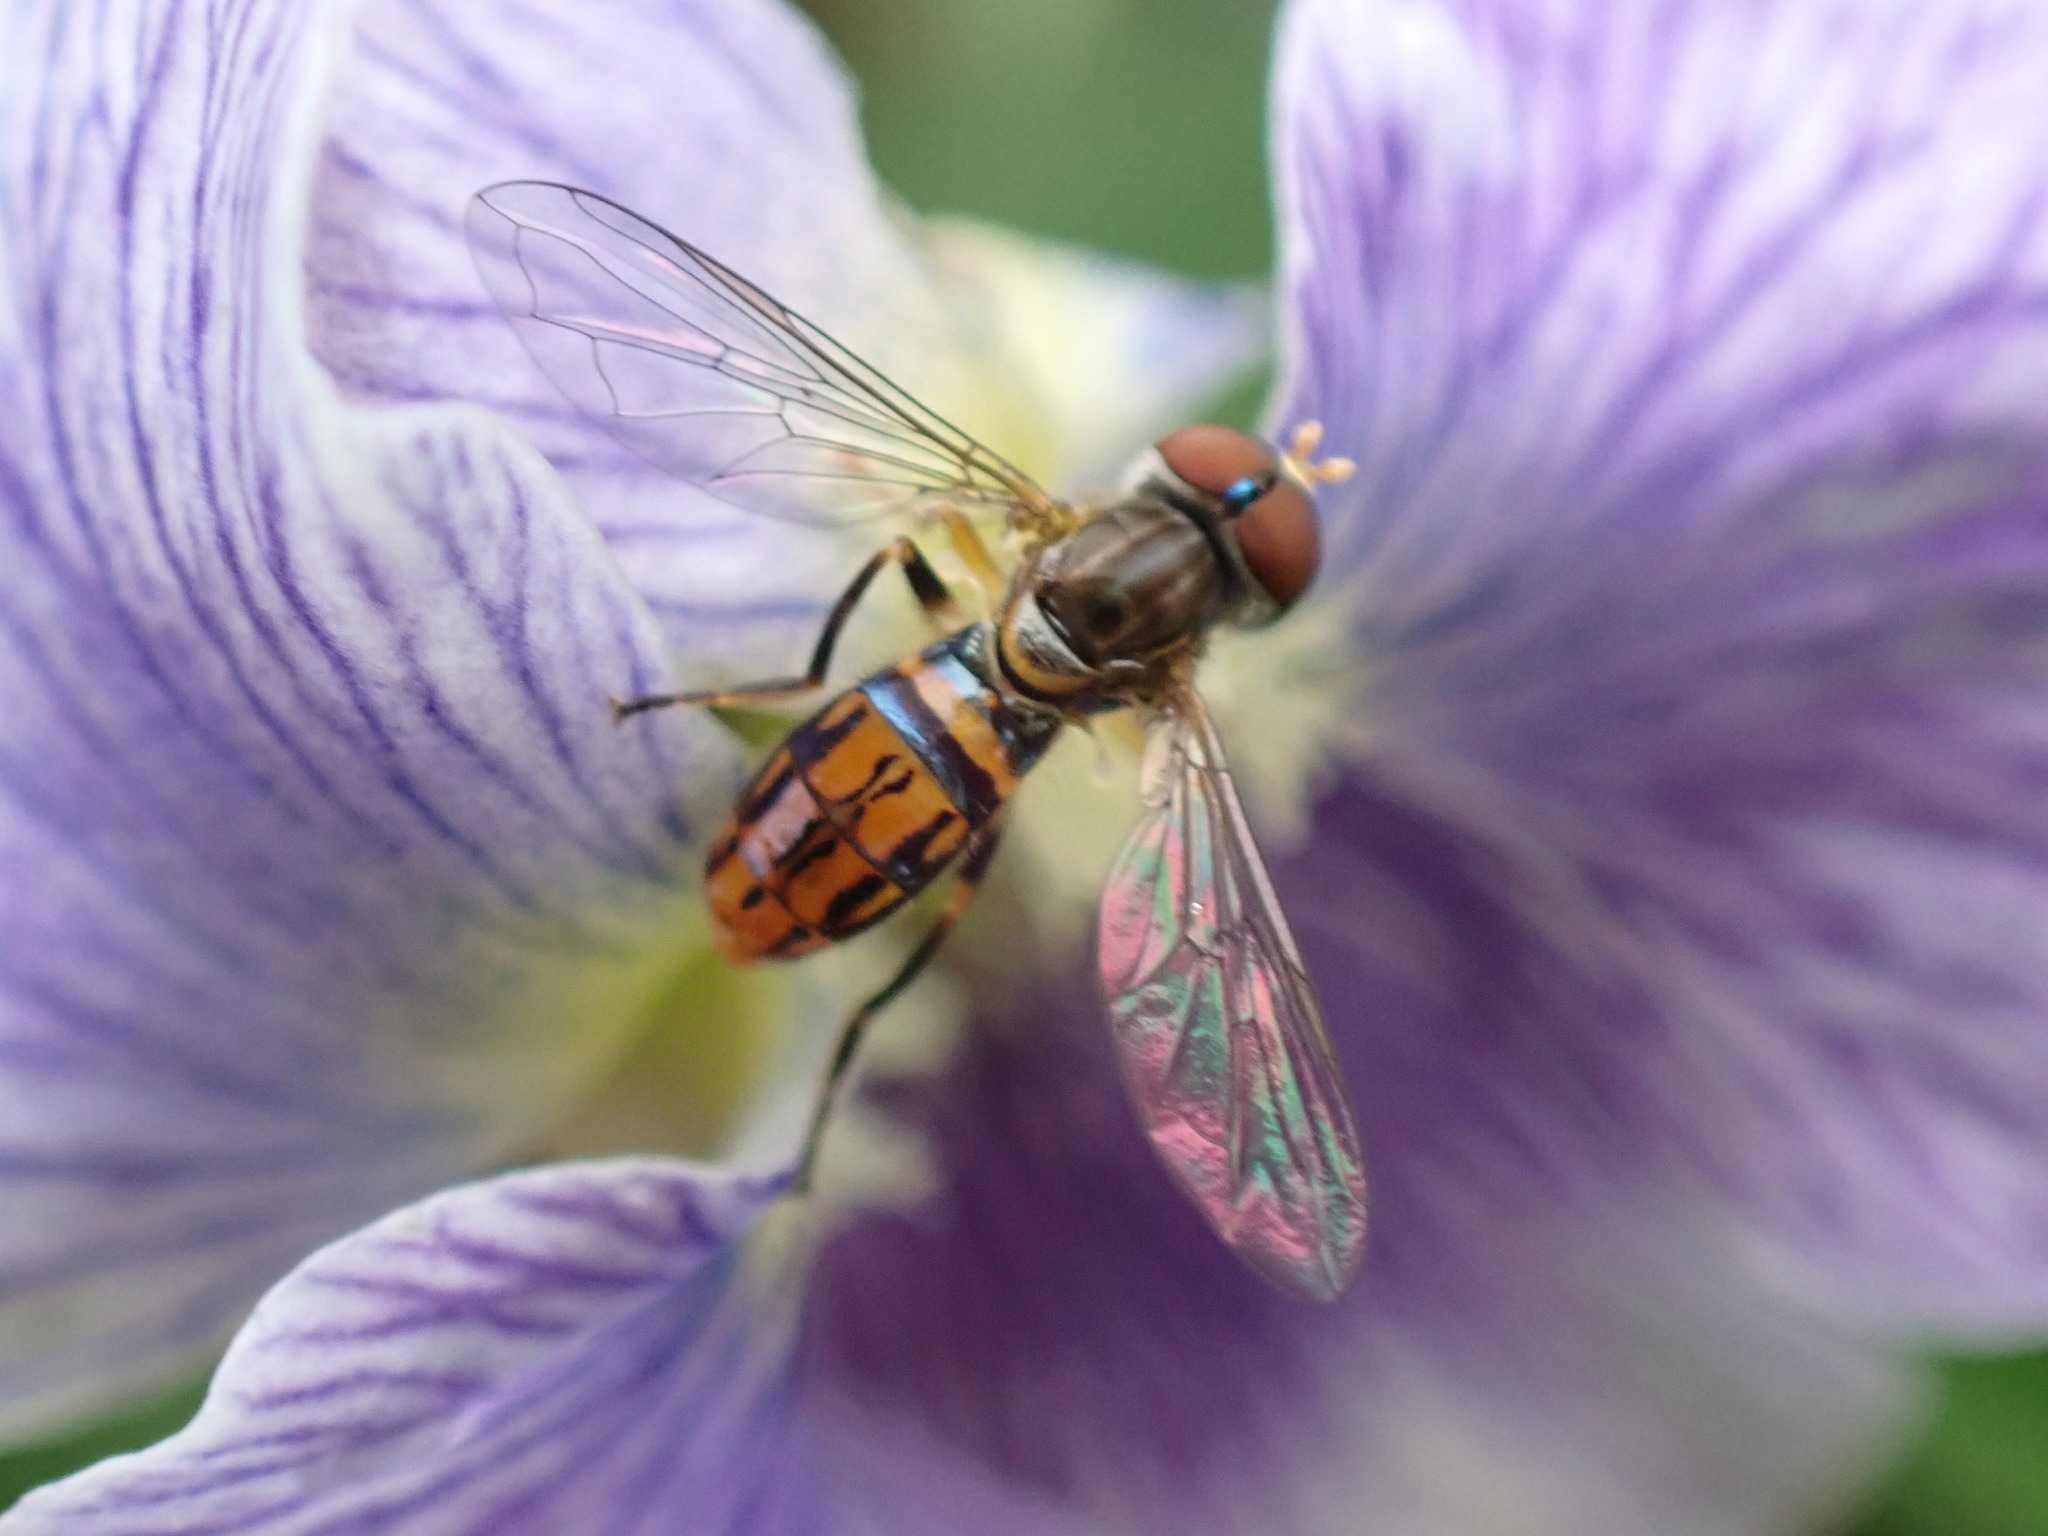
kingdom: Animalia
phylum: Arthropoda
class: Insecta
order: Diptera
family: Syrphidae
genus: Toxomerus
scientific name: Toxomerus boscii
